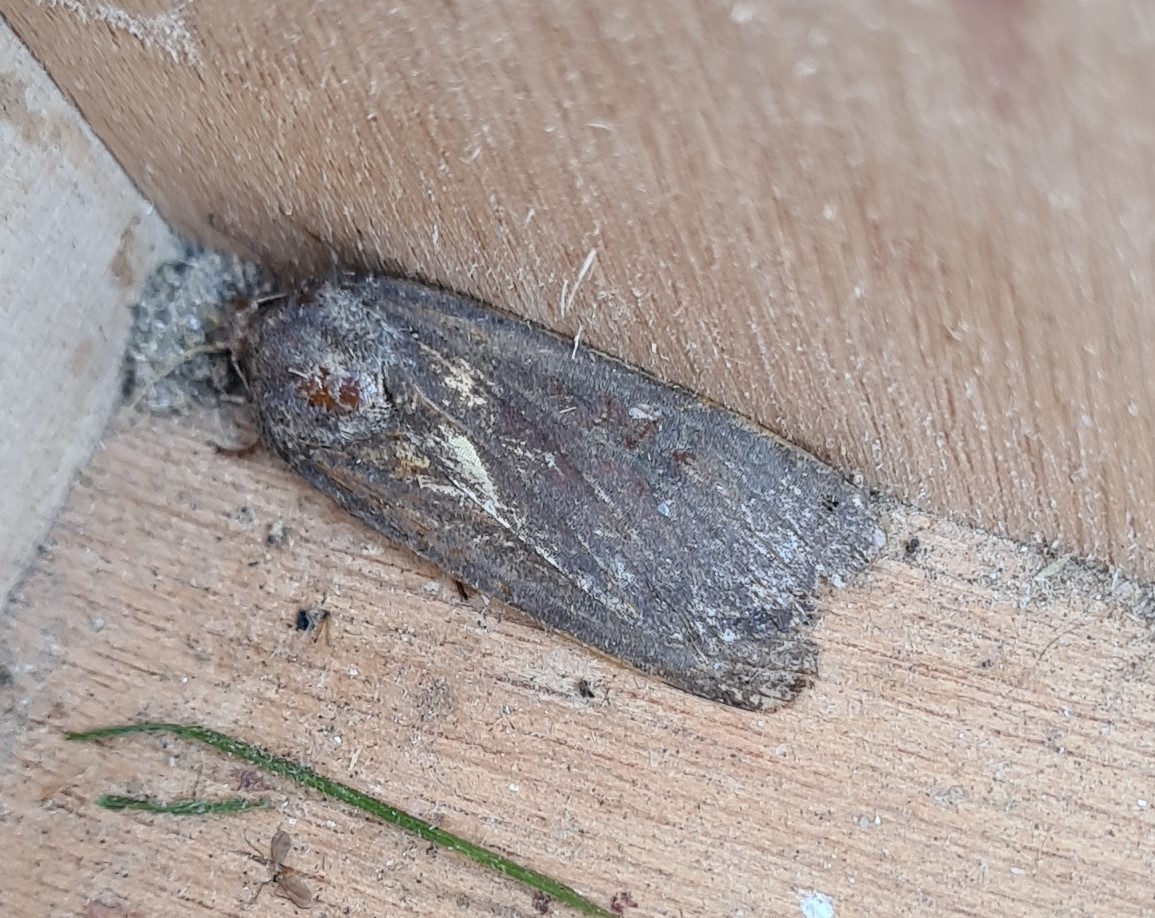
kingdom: Animalia
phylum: Arthropoda
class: Insecta
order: Lepidoptera
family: Noctuidae
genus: Noctua
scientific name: Noctua pronuba
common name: Large yellow underwing
